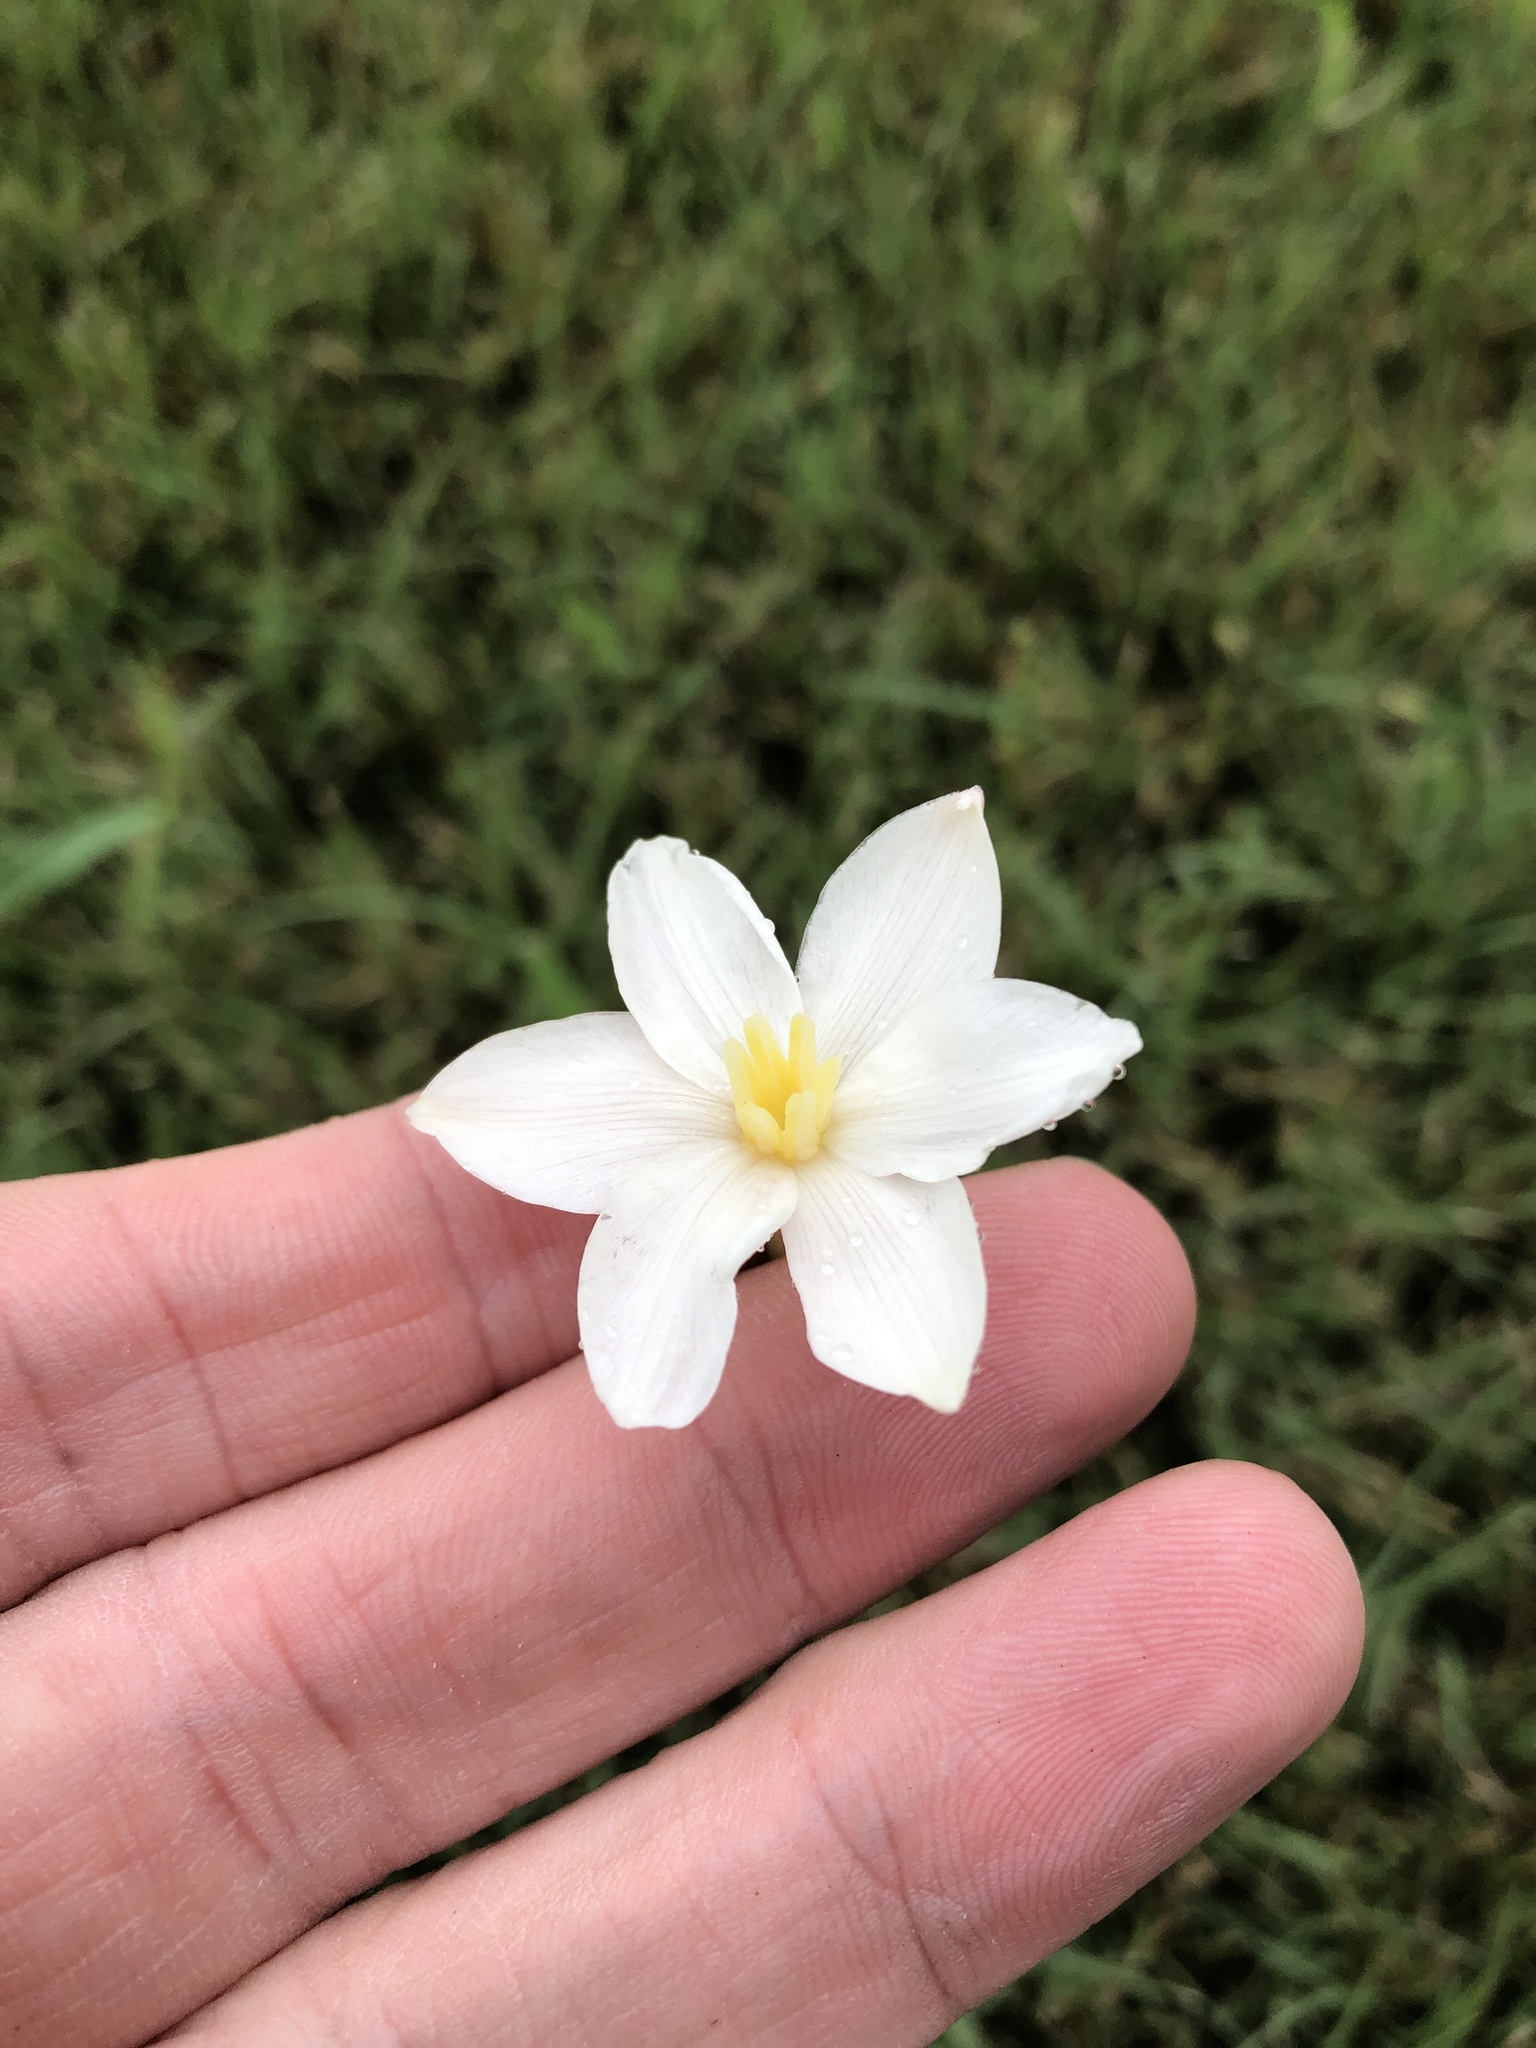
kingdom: Plantae
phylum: Tracheophyta
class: Liliopsida
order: Asparagales
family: Amaryllidaceae
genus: Zephyranthes
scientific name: Zephyranthes chlorosolen
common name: Evening rain-lily
